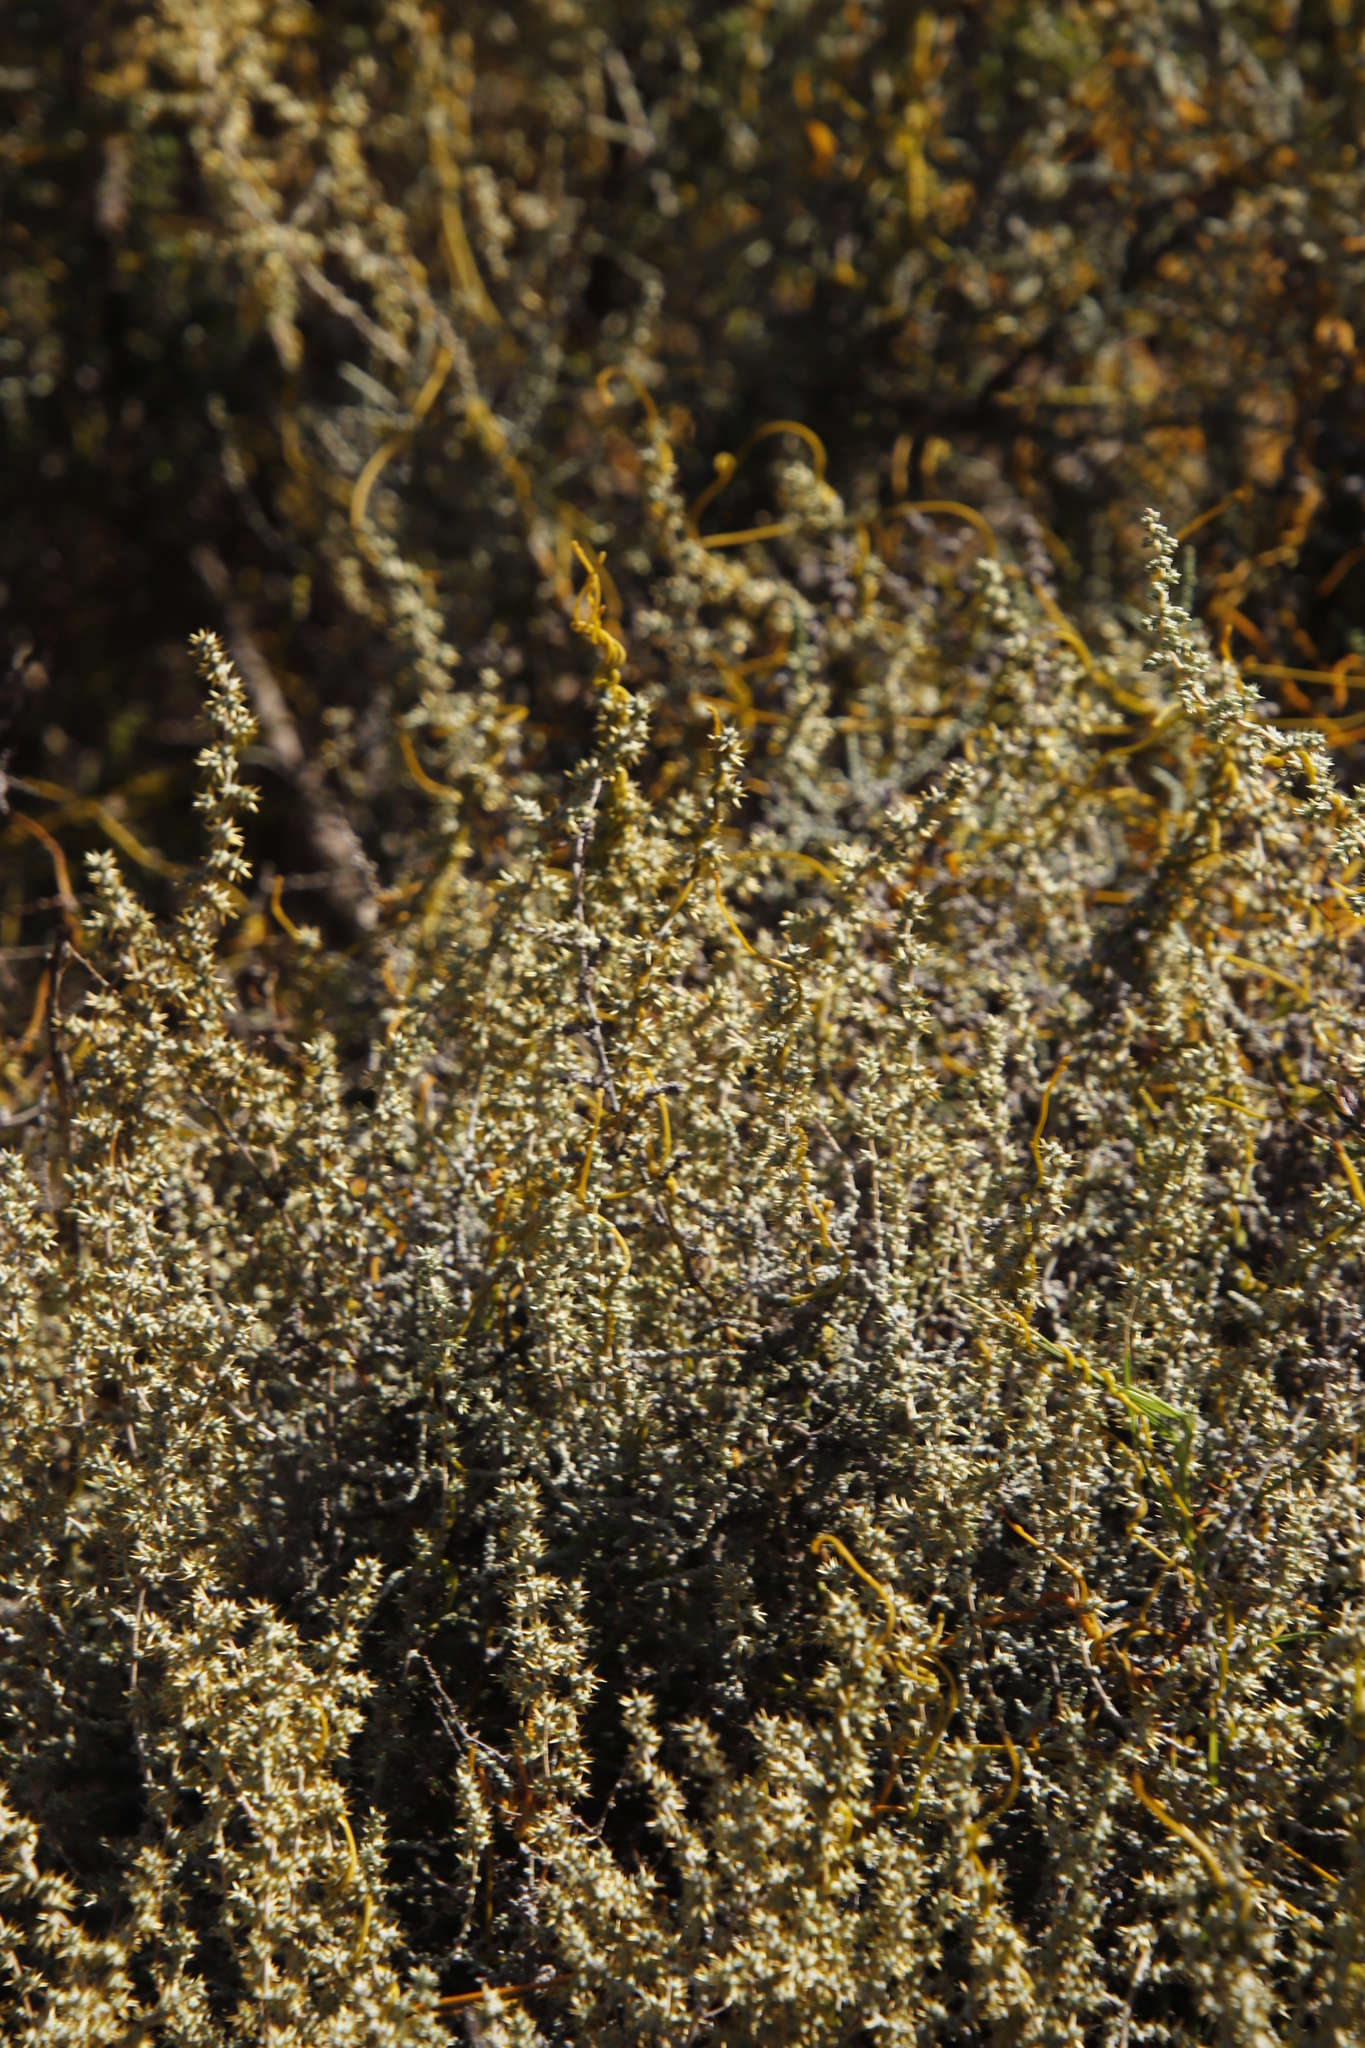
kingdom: Plantae
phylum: Tracheophyta
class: Magnoliopsida
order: Asterales
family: Asteraceae
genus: Seriphium
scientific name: Seriphium plumosum
